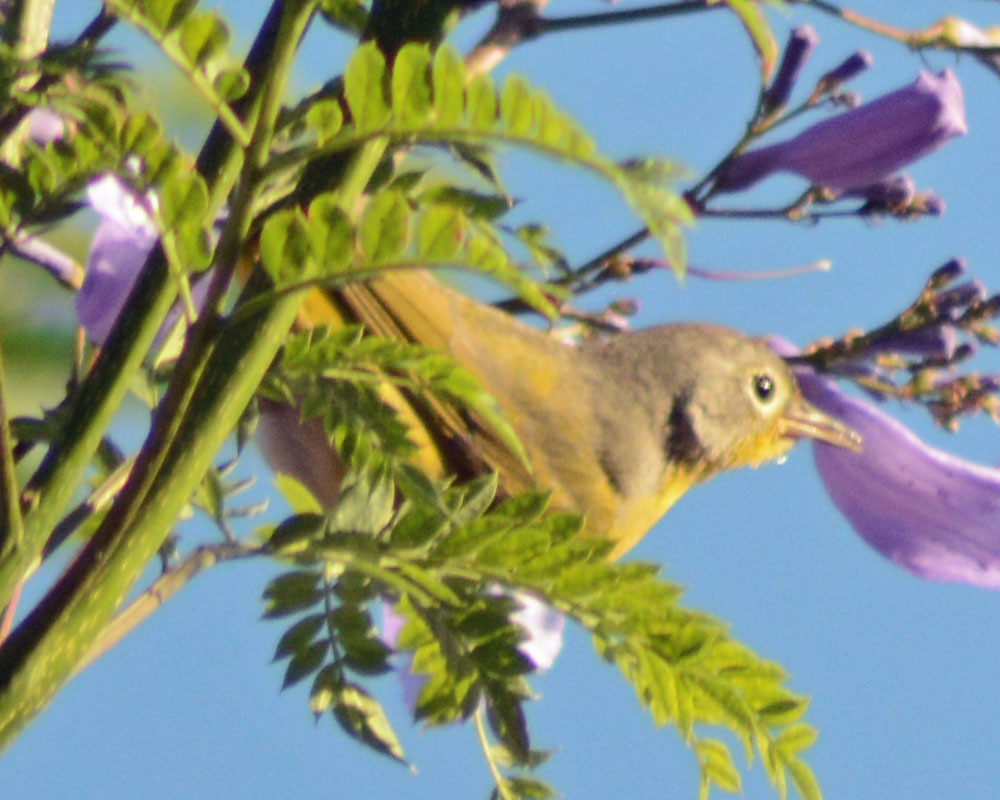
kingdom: Animalia
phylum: Chordata
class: Aves
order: Passeriformes
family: Parulidae
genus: Leiothlypis
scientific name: Leiothlypis ruficapilla
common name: Nashville warbler
